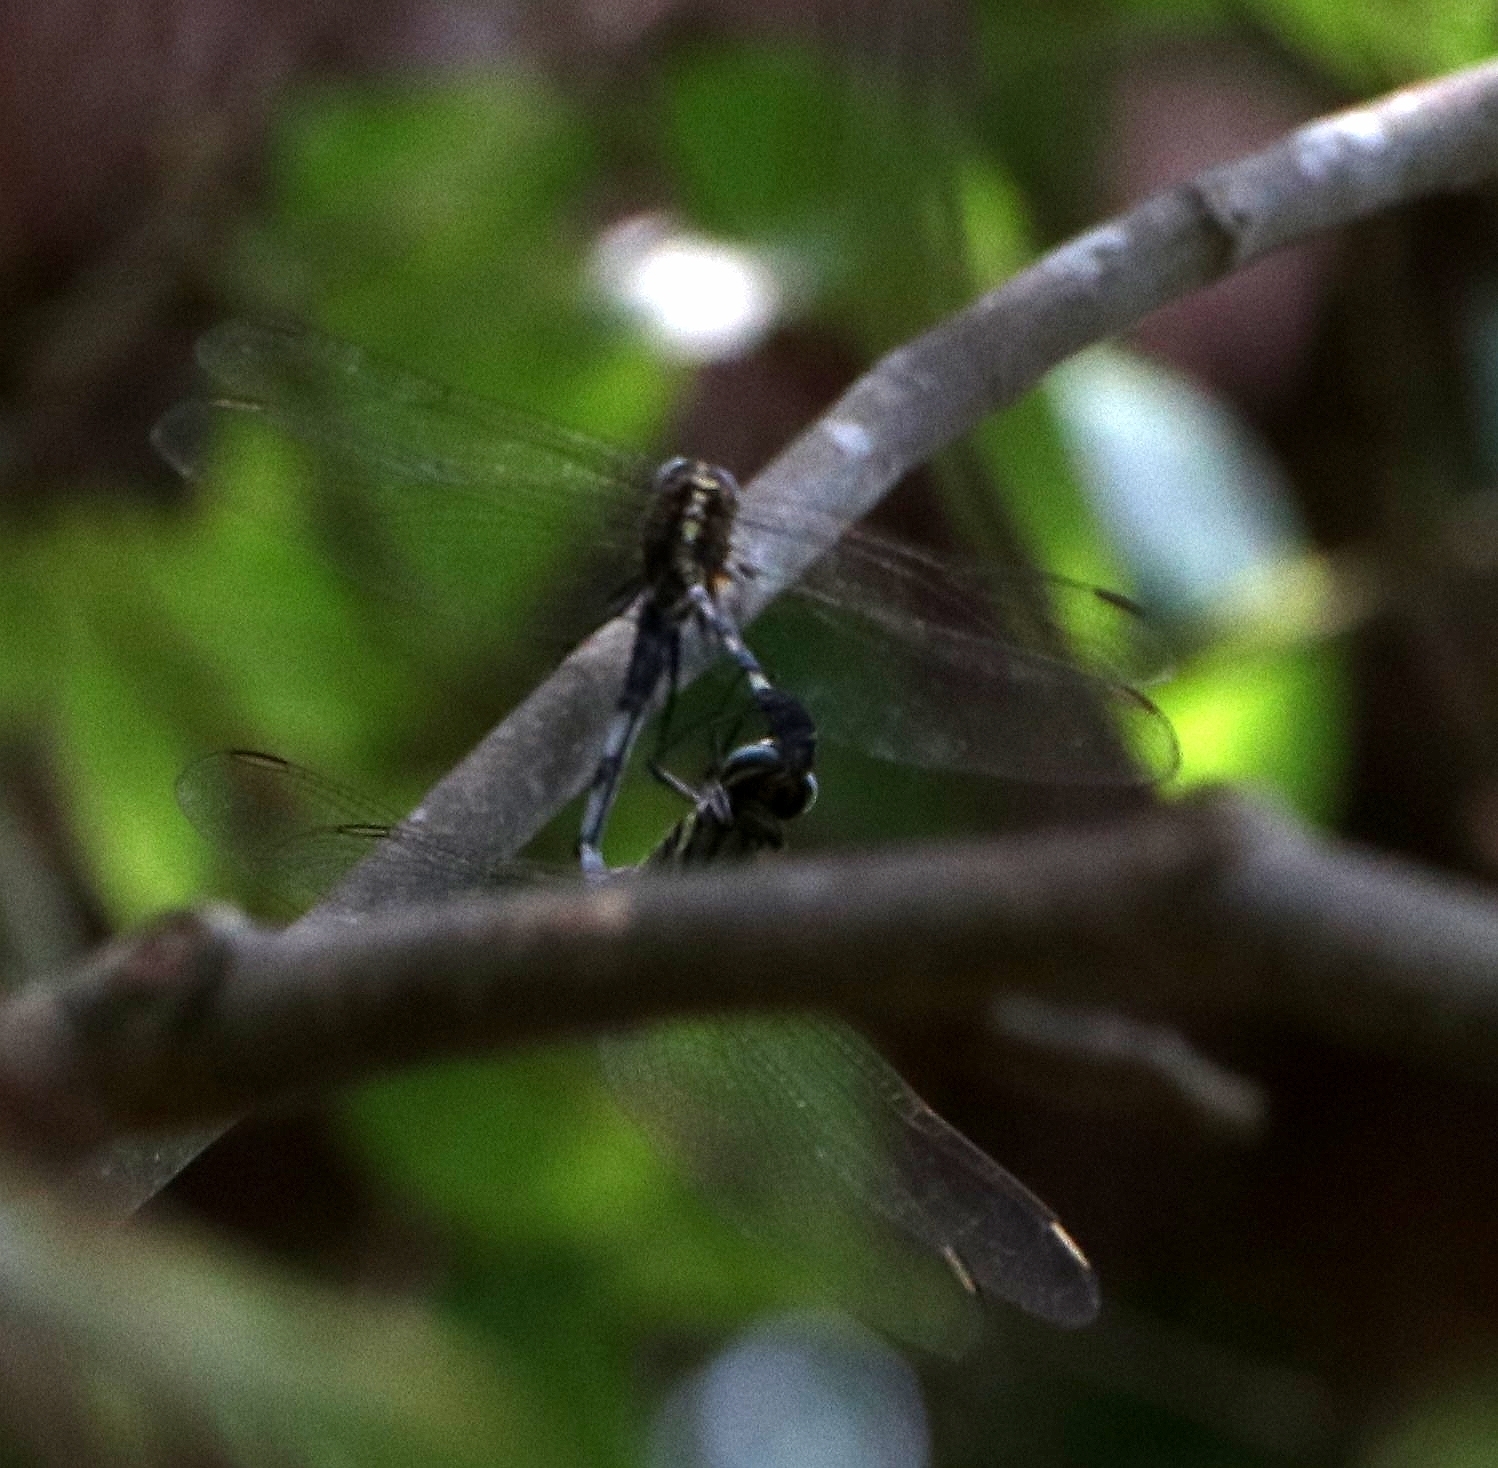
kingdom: Animalia
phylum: Arthropoda
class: Insecta
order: Odonata
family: Libellulidae
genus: Orthetrum
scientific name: Orthetrum sabina
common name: Slender skimmer
